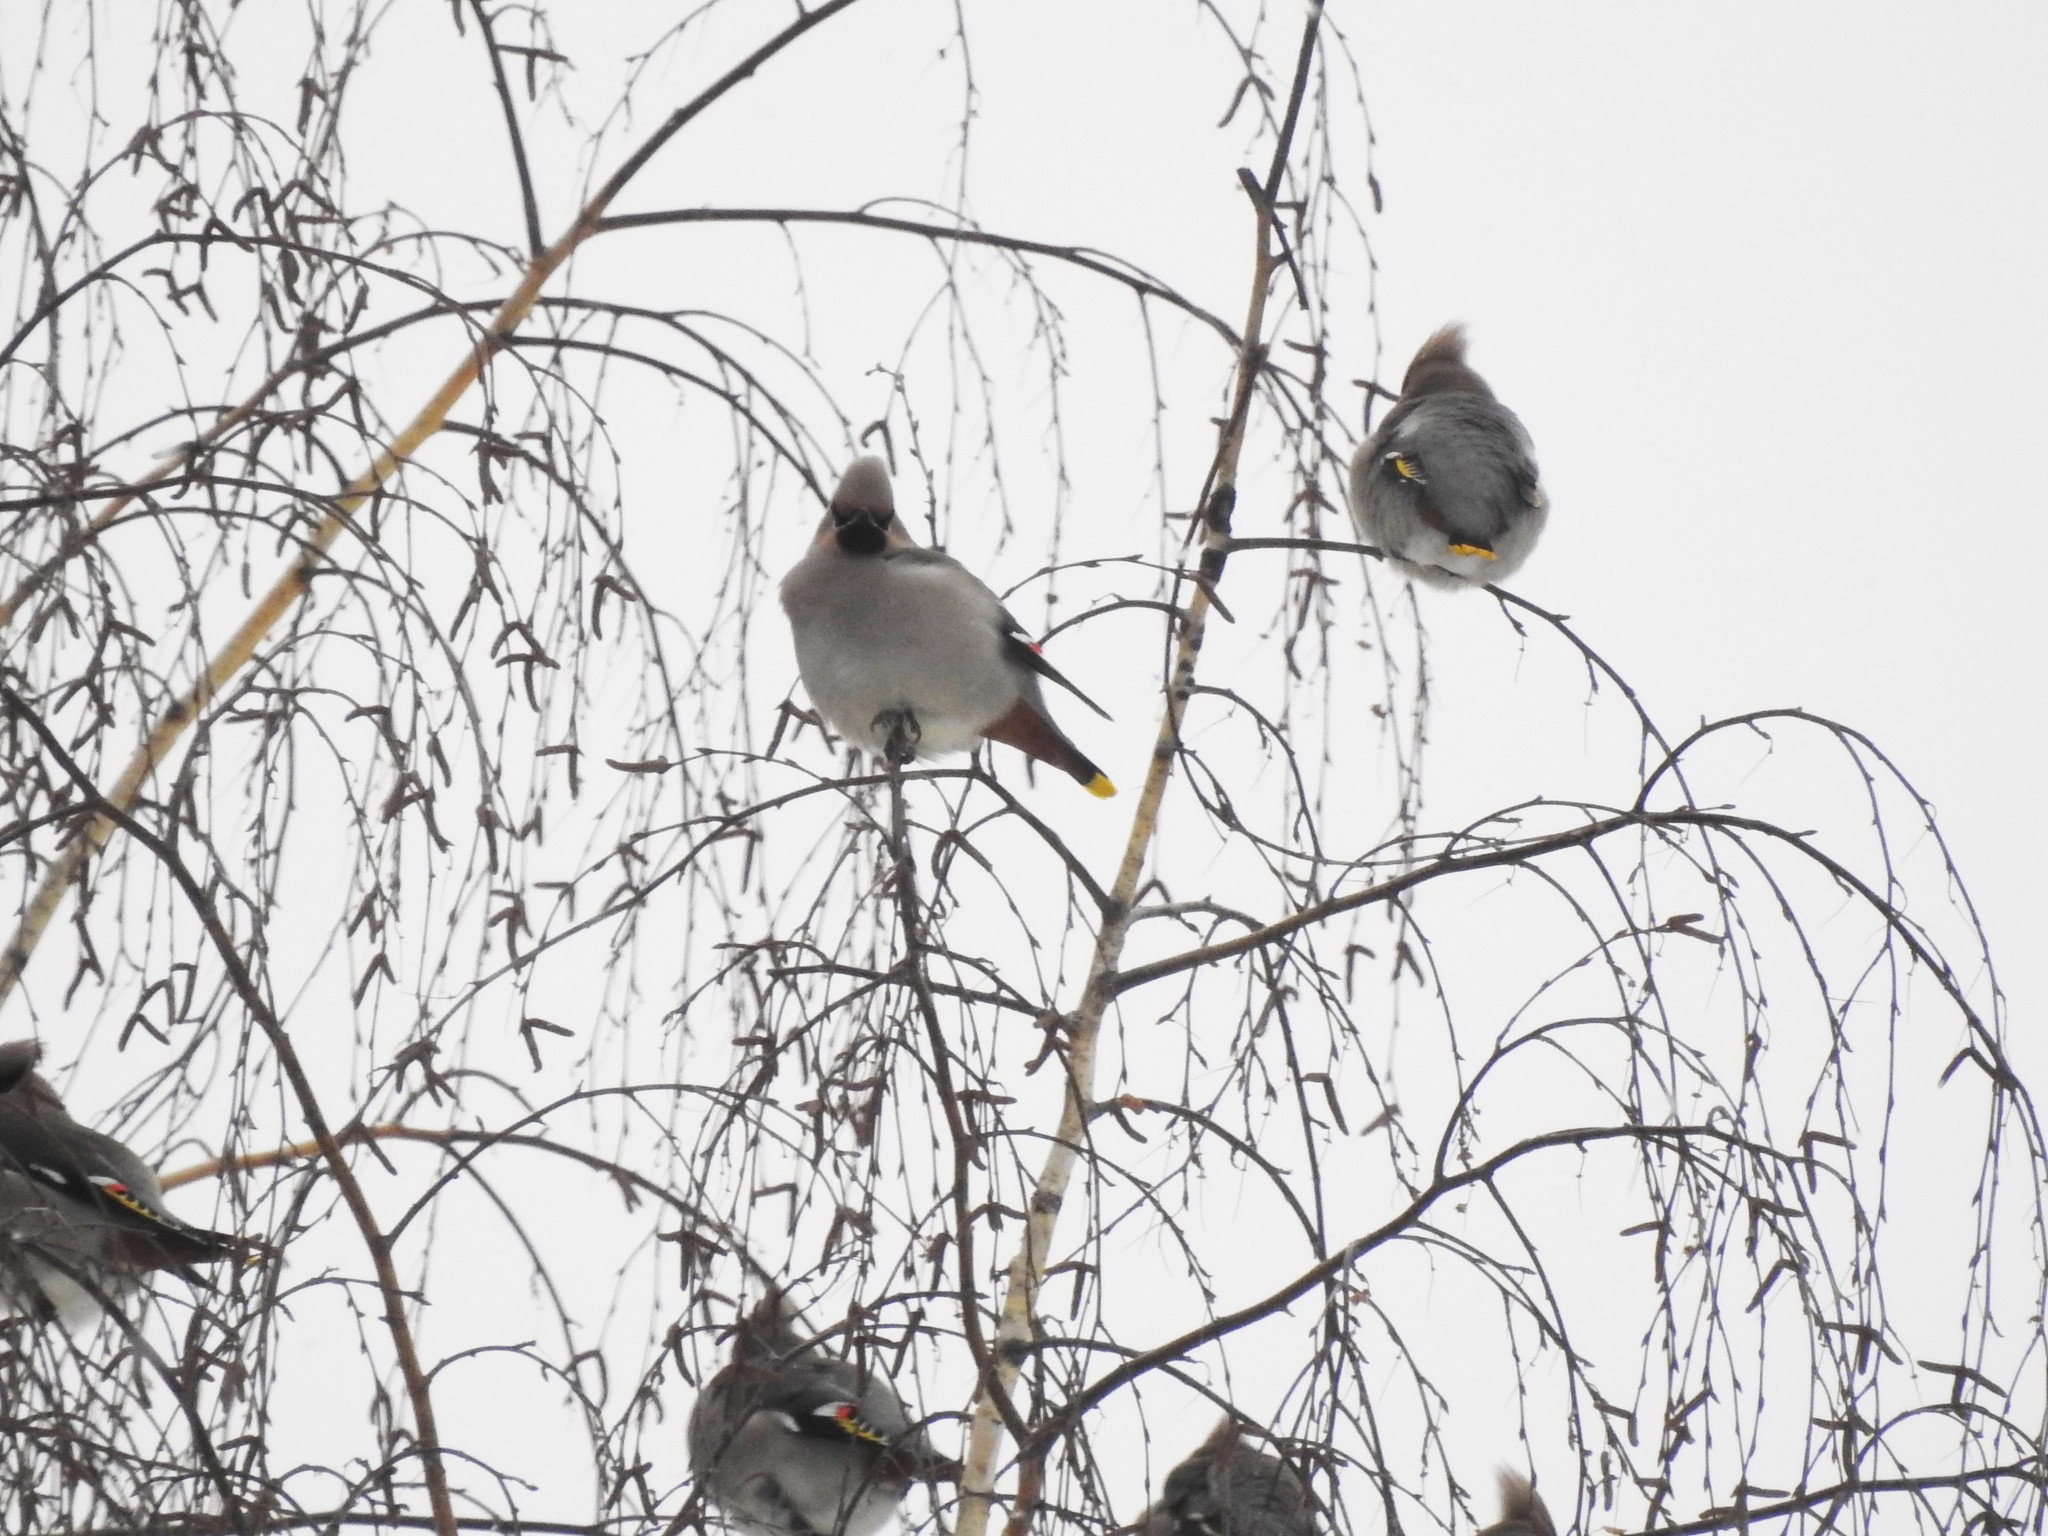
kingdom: Animalia
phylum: Chordata
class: Aves
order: Passeriformes
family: Bombycillidae
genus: Bombycilla
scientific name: Bombycilla garrulus
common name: Bohemian waxwing
